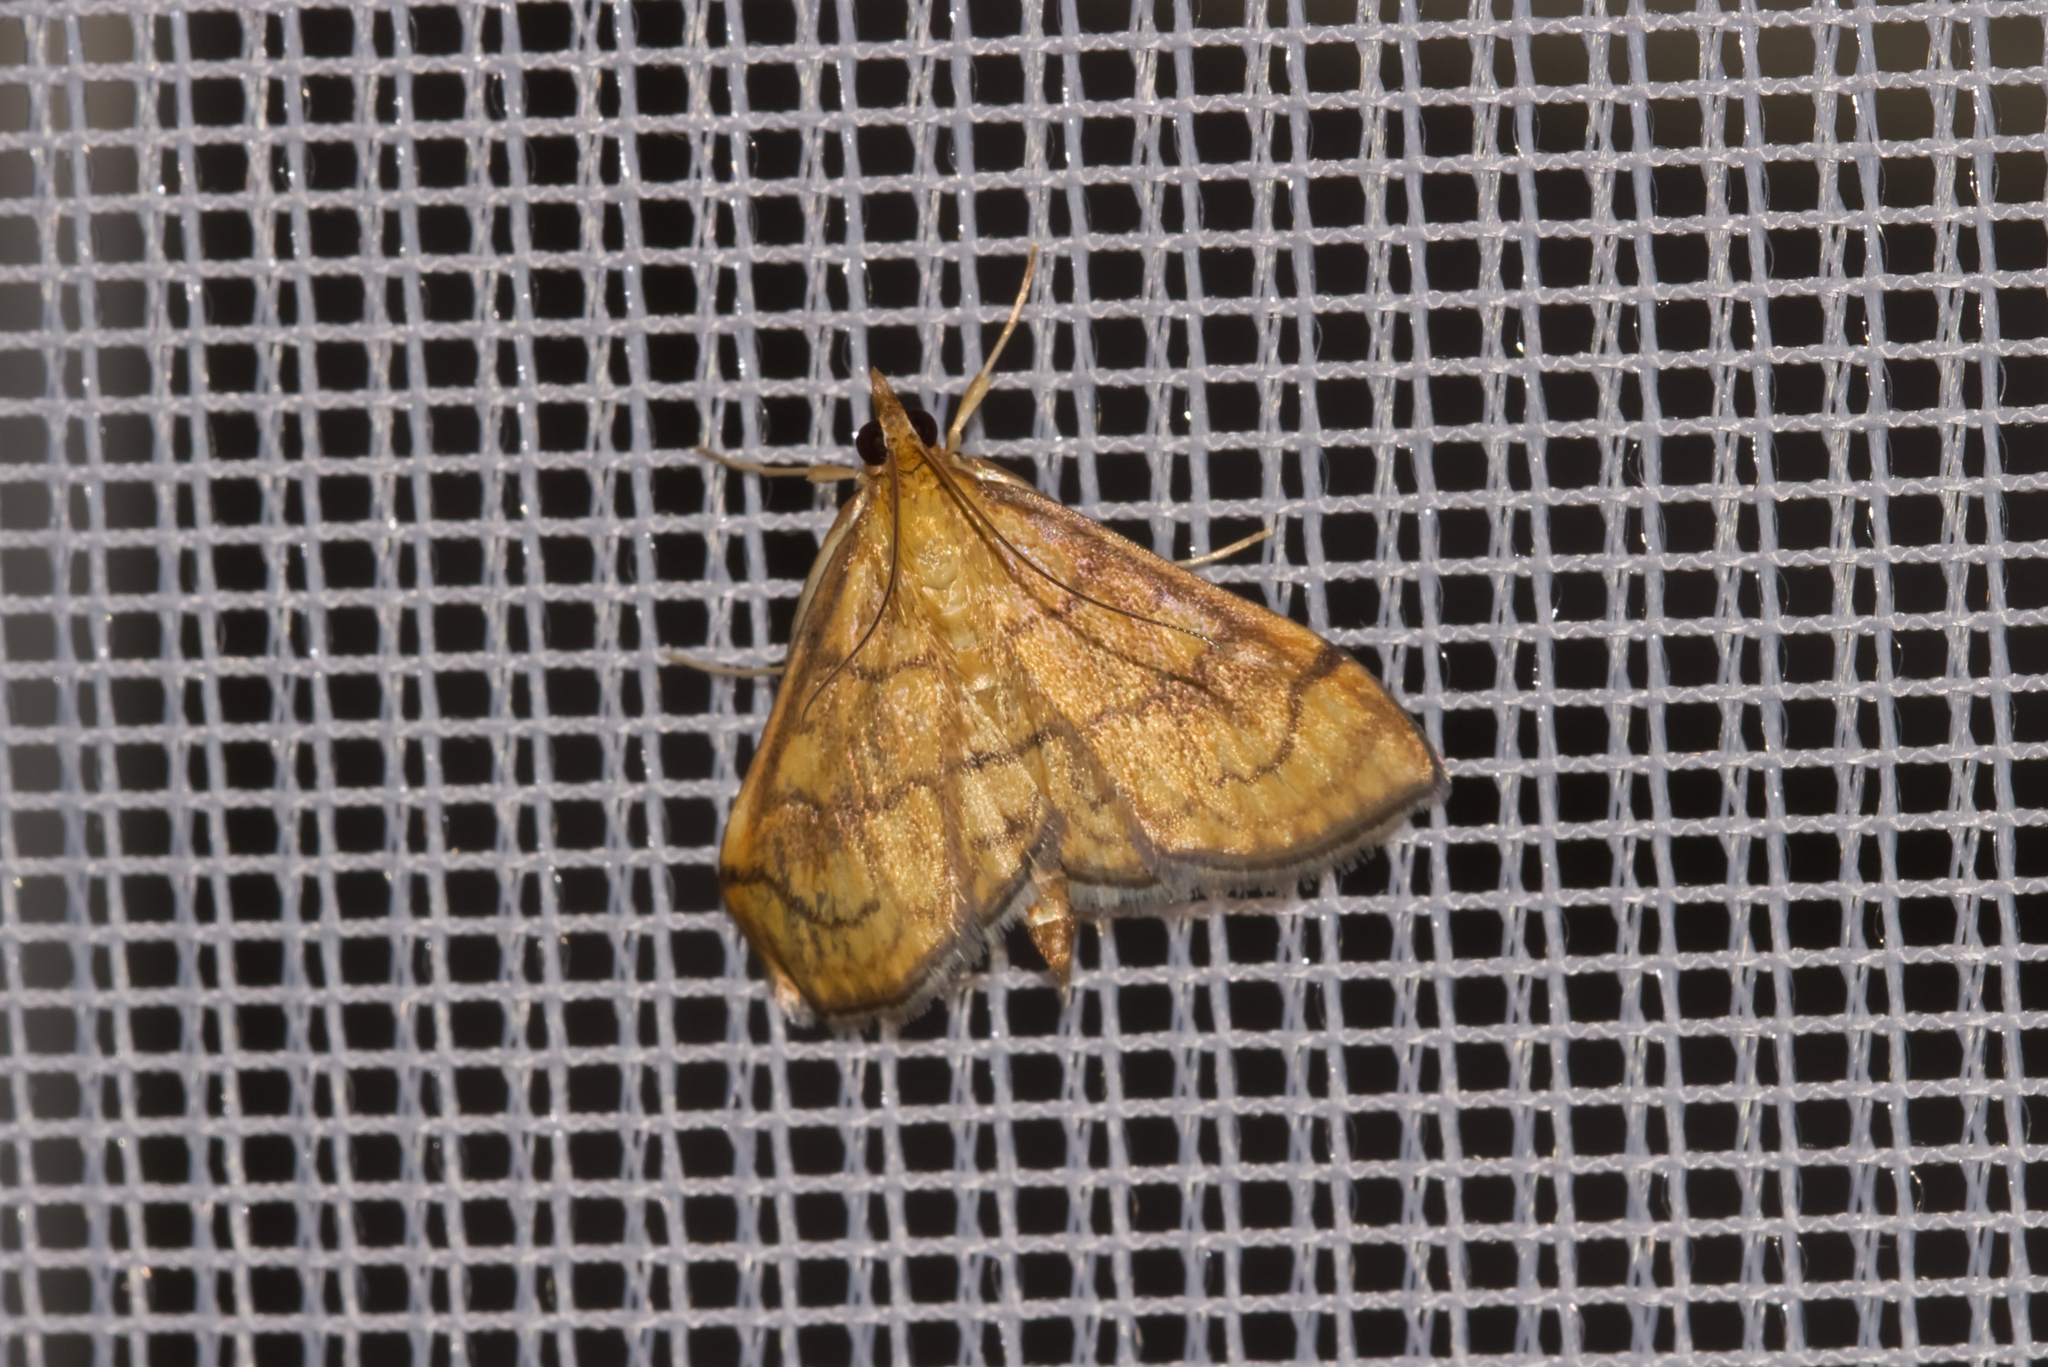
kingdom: Animalia
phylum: Arthropoda
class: Insecta
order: Lepidoptera
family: Crambidae
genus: Anania
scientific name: Anania verbascalis
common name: Golden pearl
